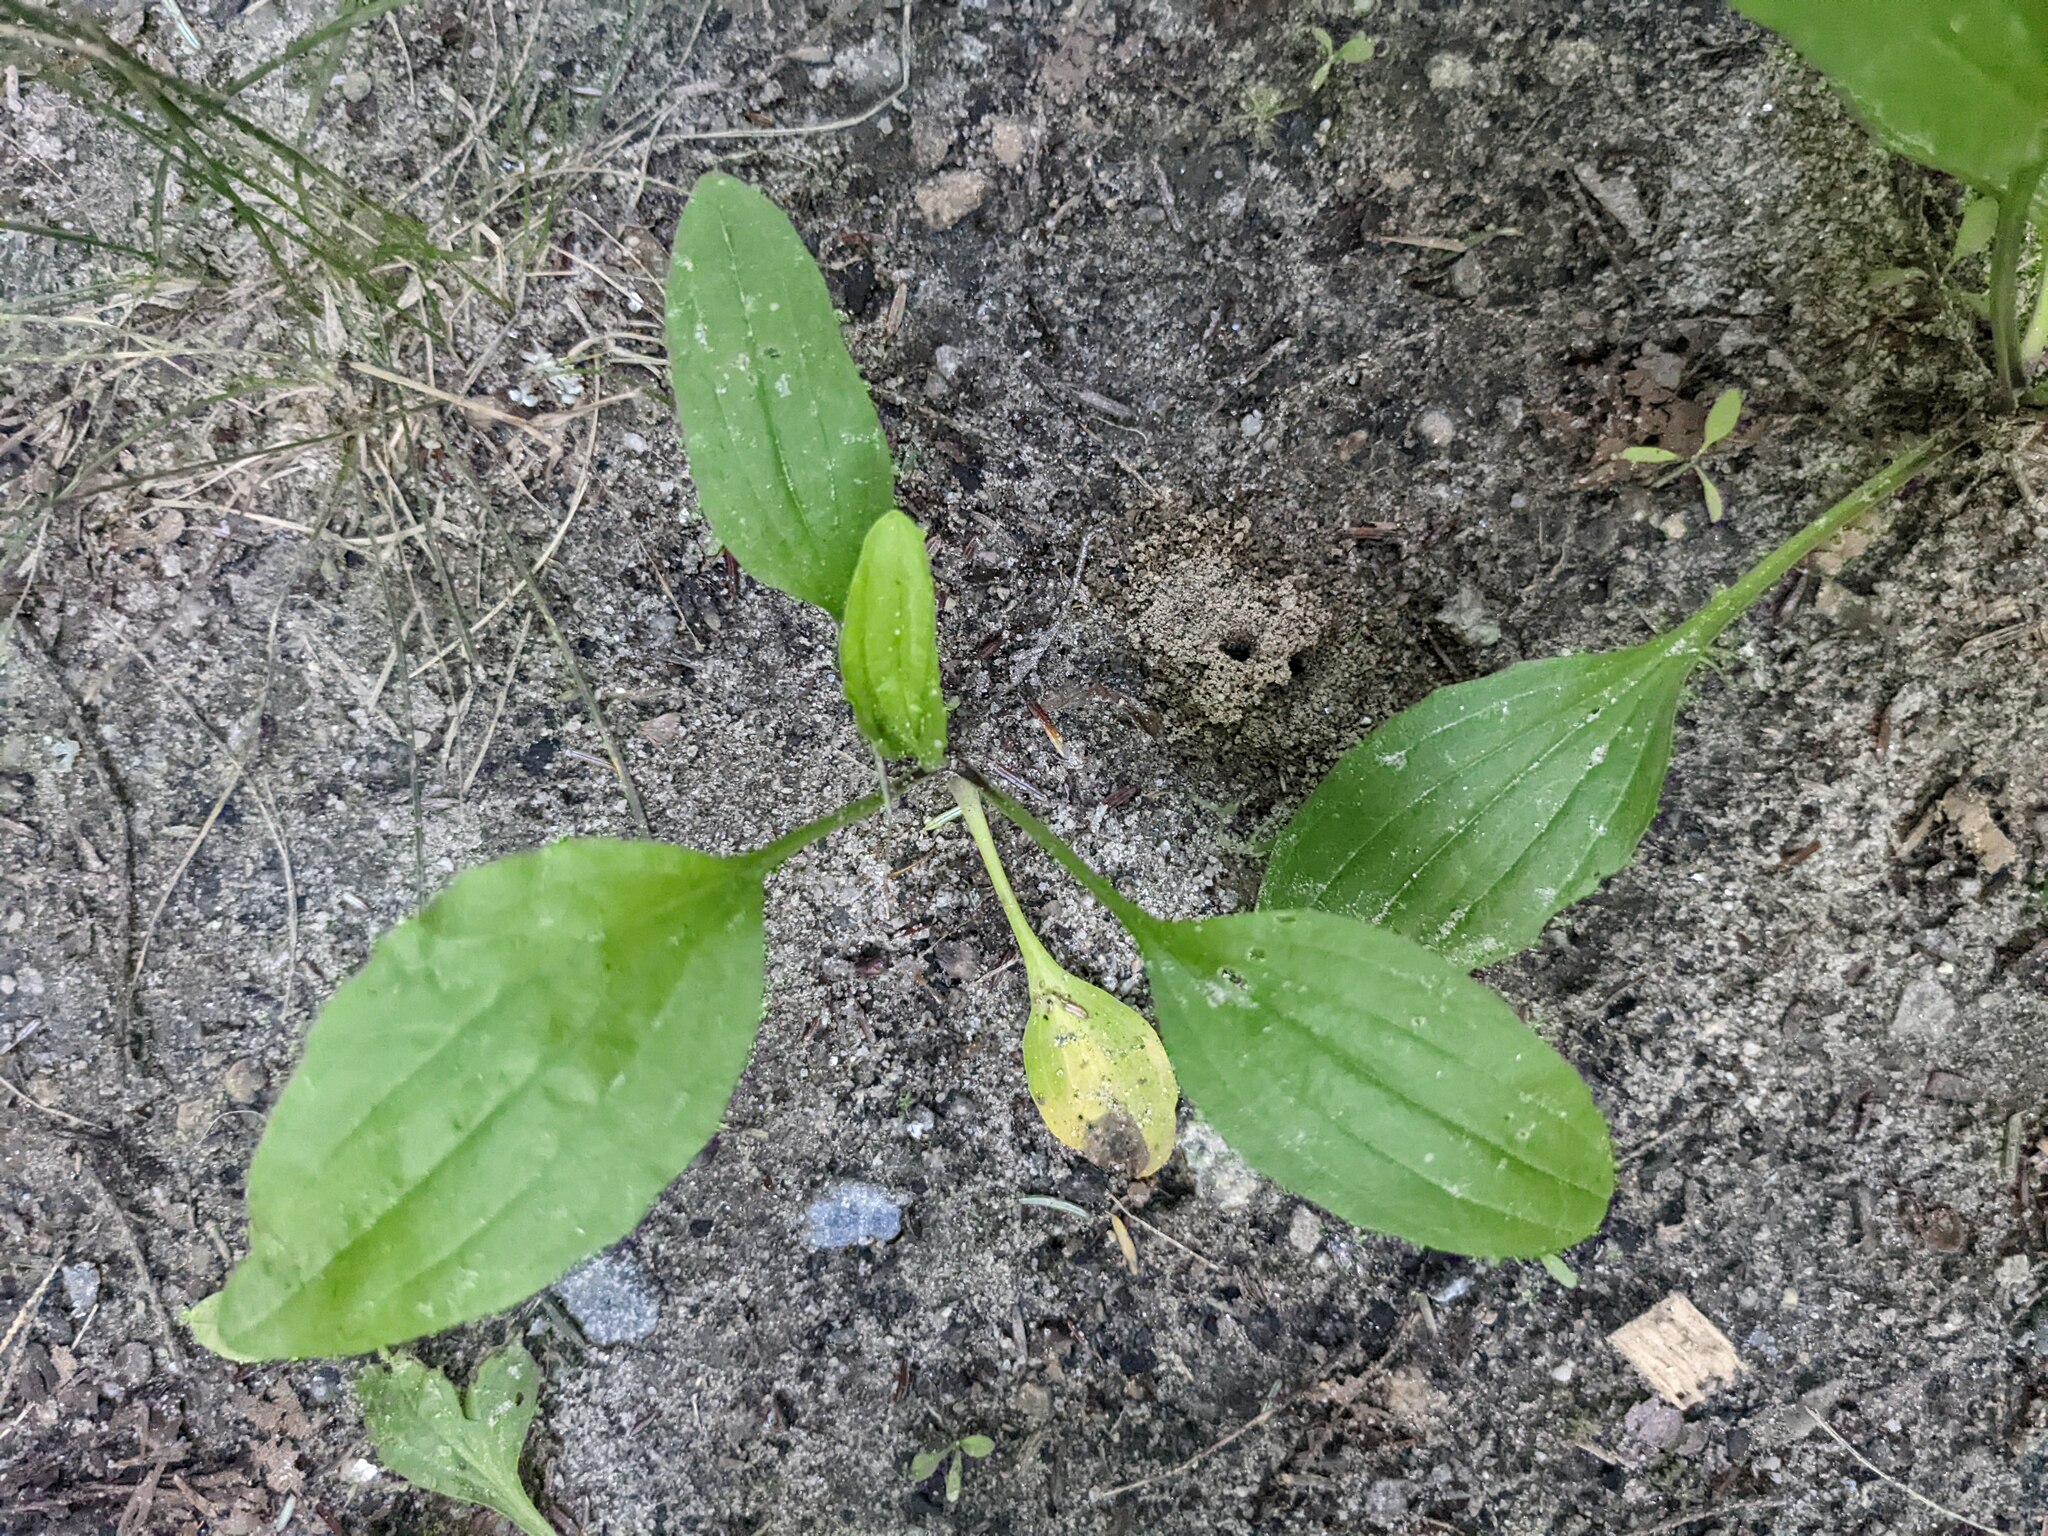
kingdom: Plantae
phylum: Tracheophyta
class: Magnoliopsida
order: Lamiales
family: Plantaginaceae
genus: Plantago
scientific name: Plantago rugelii
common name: American plantain
